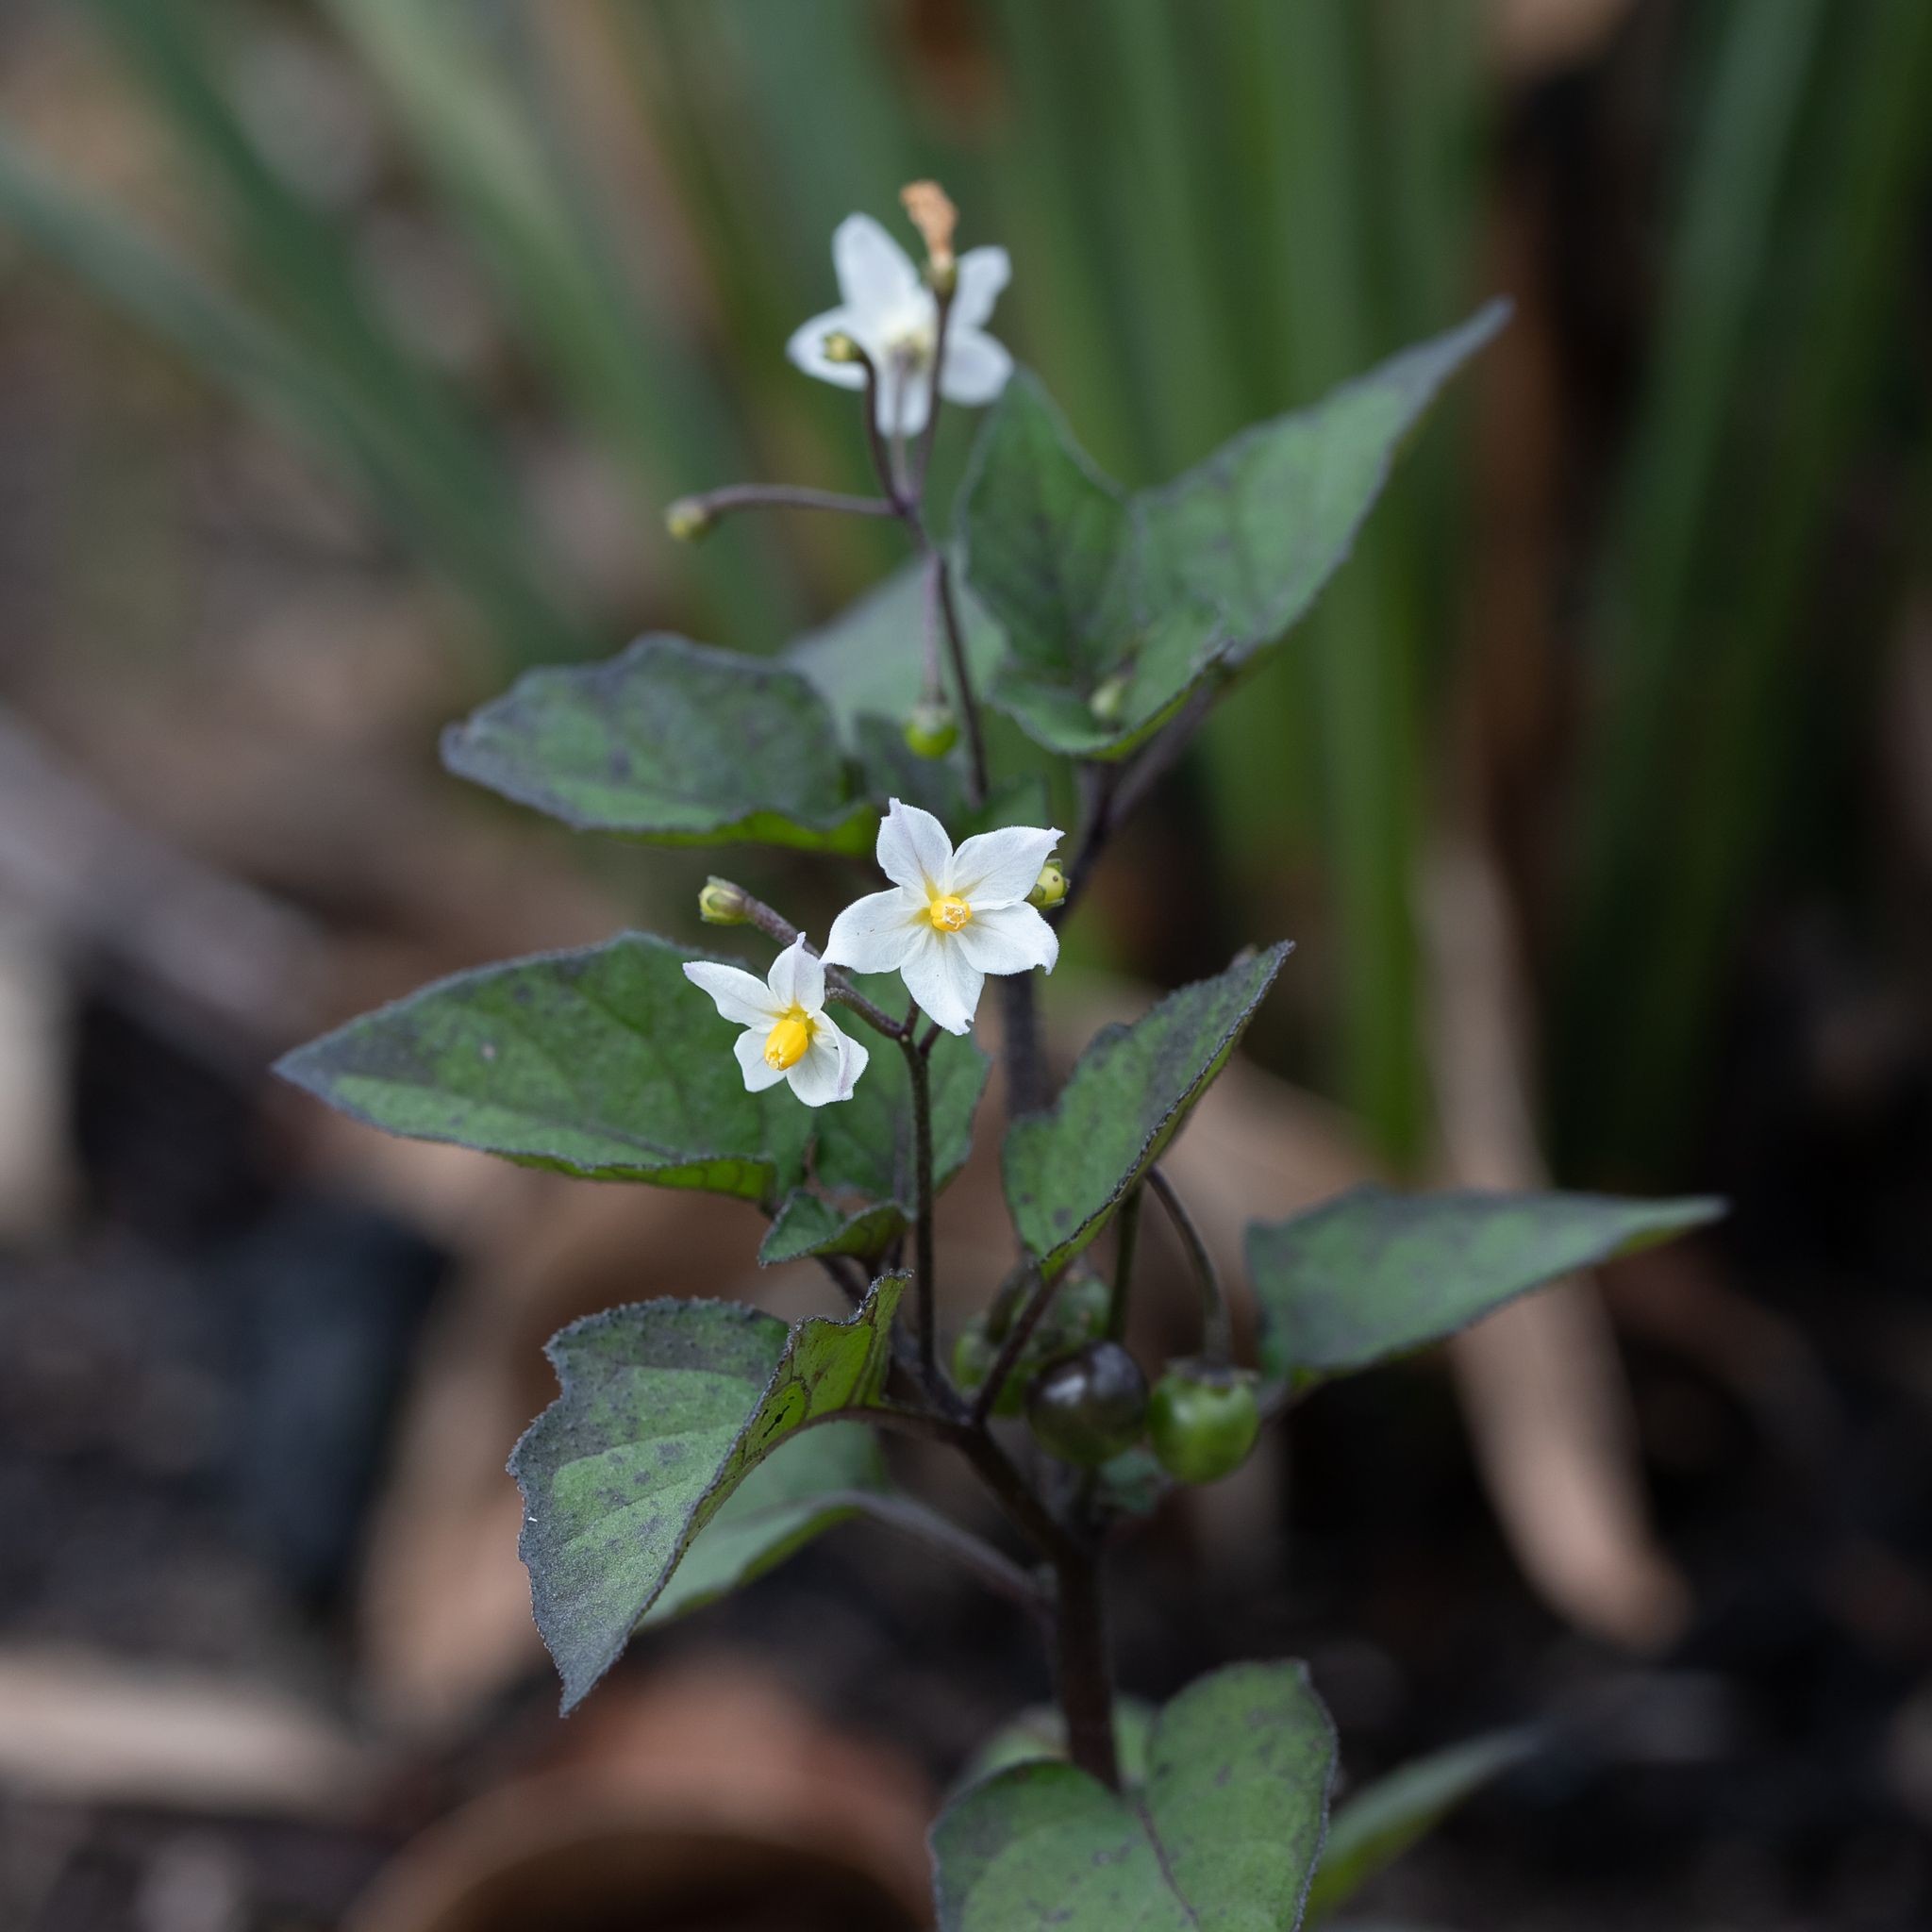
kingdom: Plantae
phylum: Tracheophyta
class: Magnoliopsida
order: Solanales
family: Solanaceae
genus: Solanum
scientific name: Solanum nigrum
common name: Black nightshade
